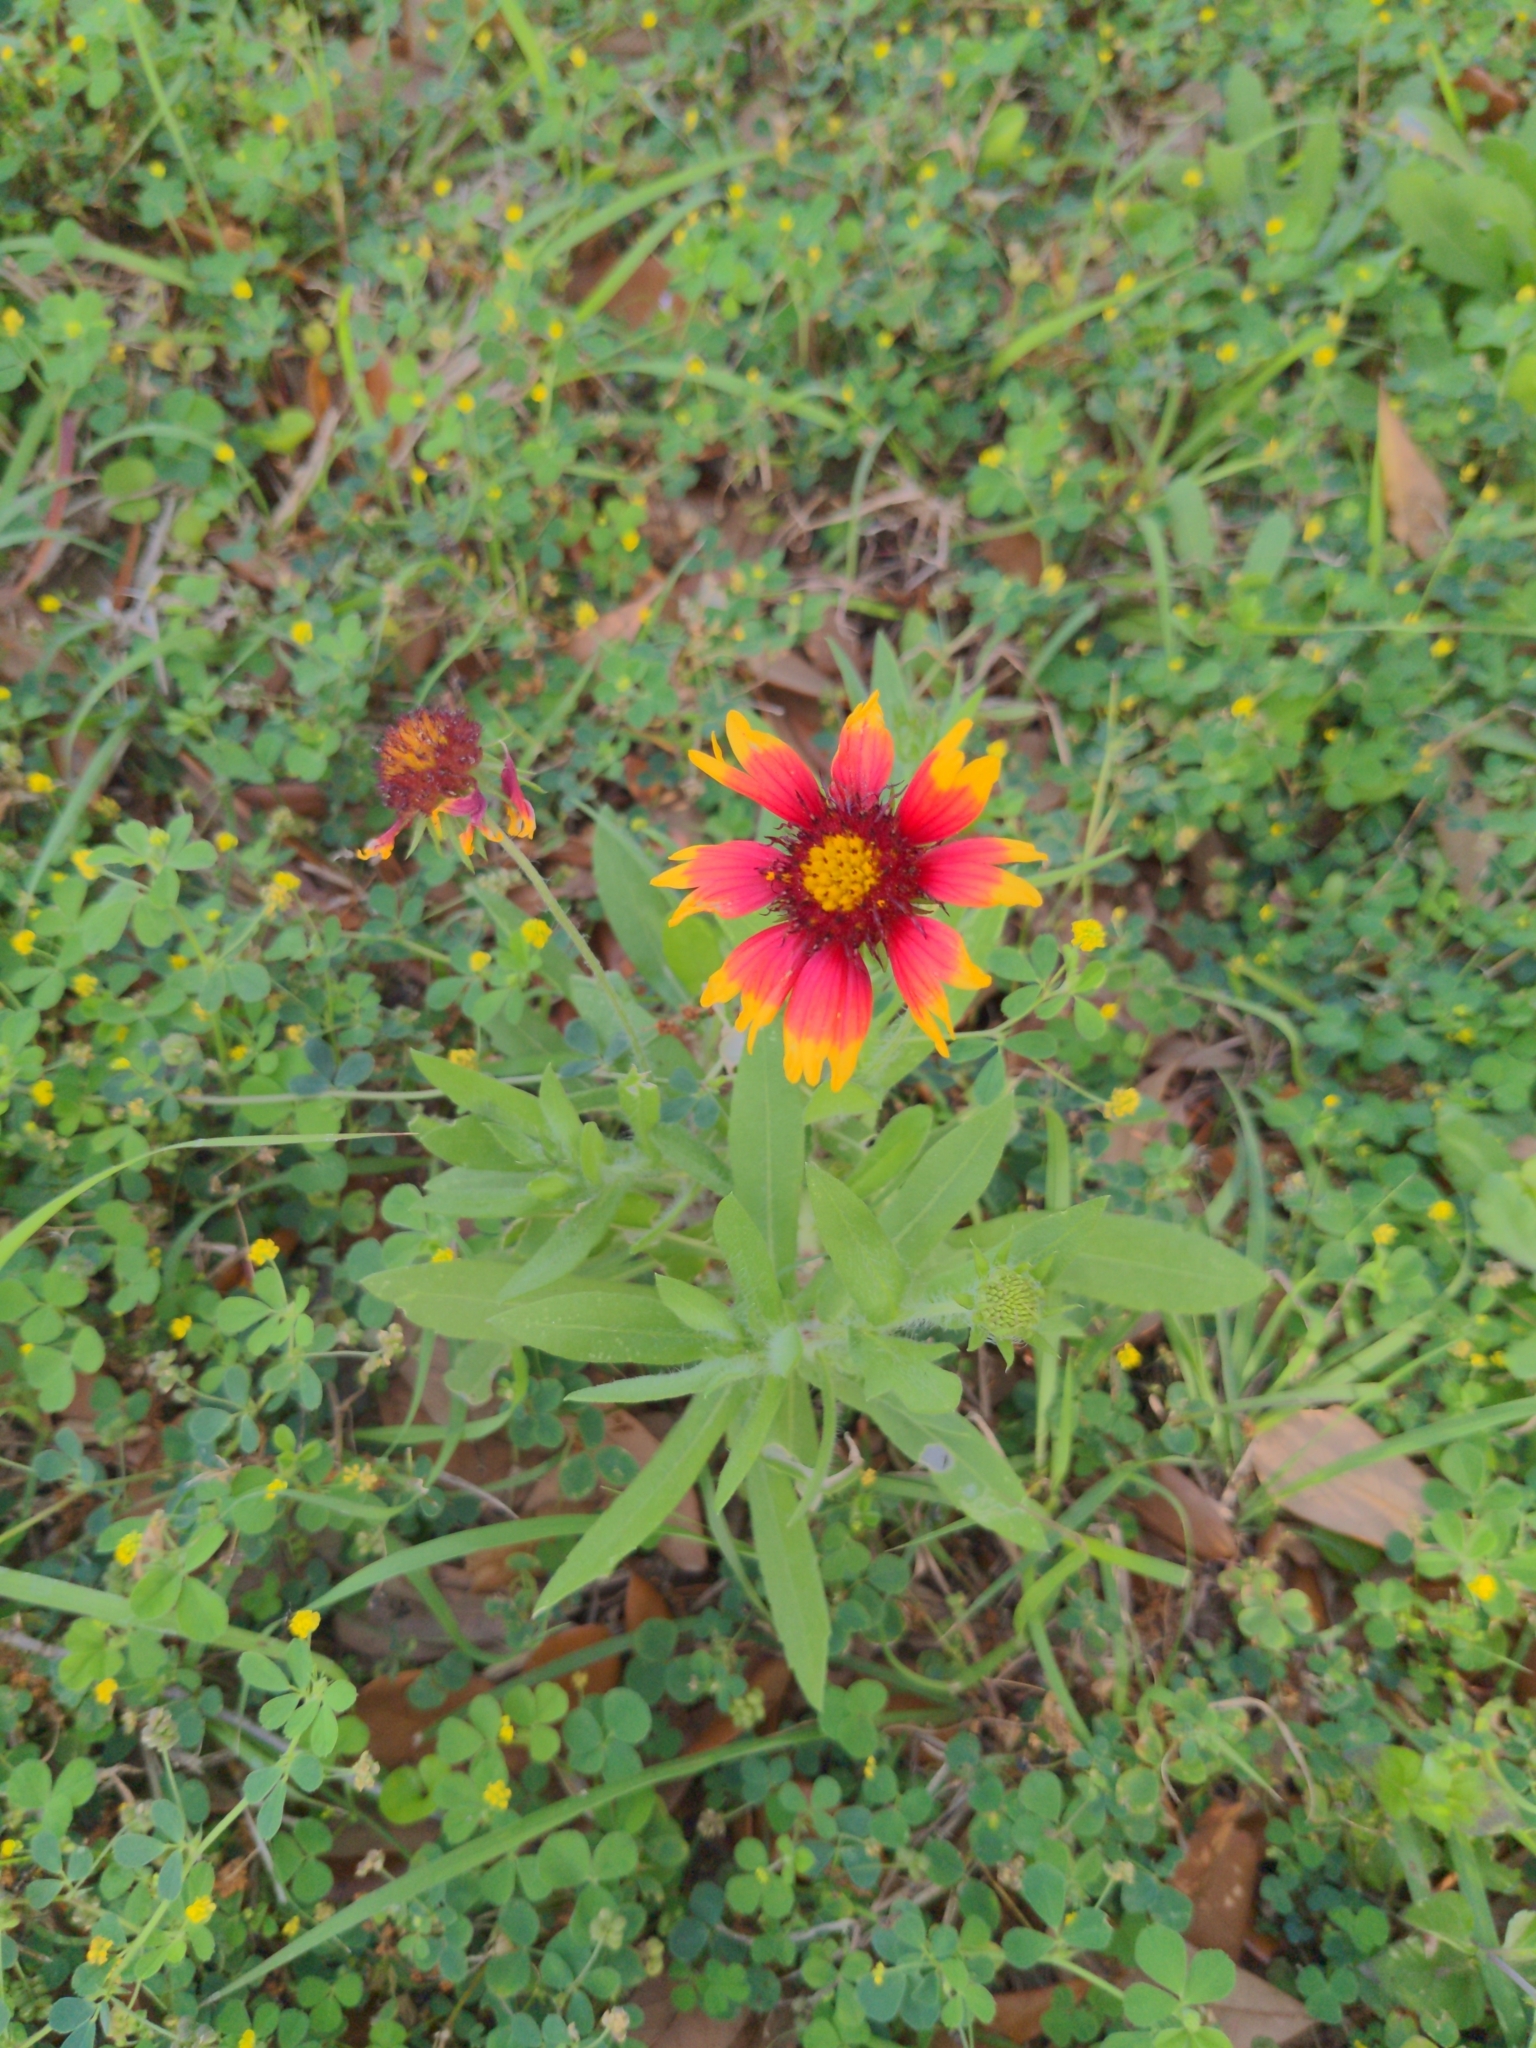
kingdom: Plantae
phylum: Tracheophyta
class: Magnoliopsida
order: Asterales
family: Asteraceae
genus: Gaillardia
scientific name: Gaillardia pulchella
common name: Firewheel
